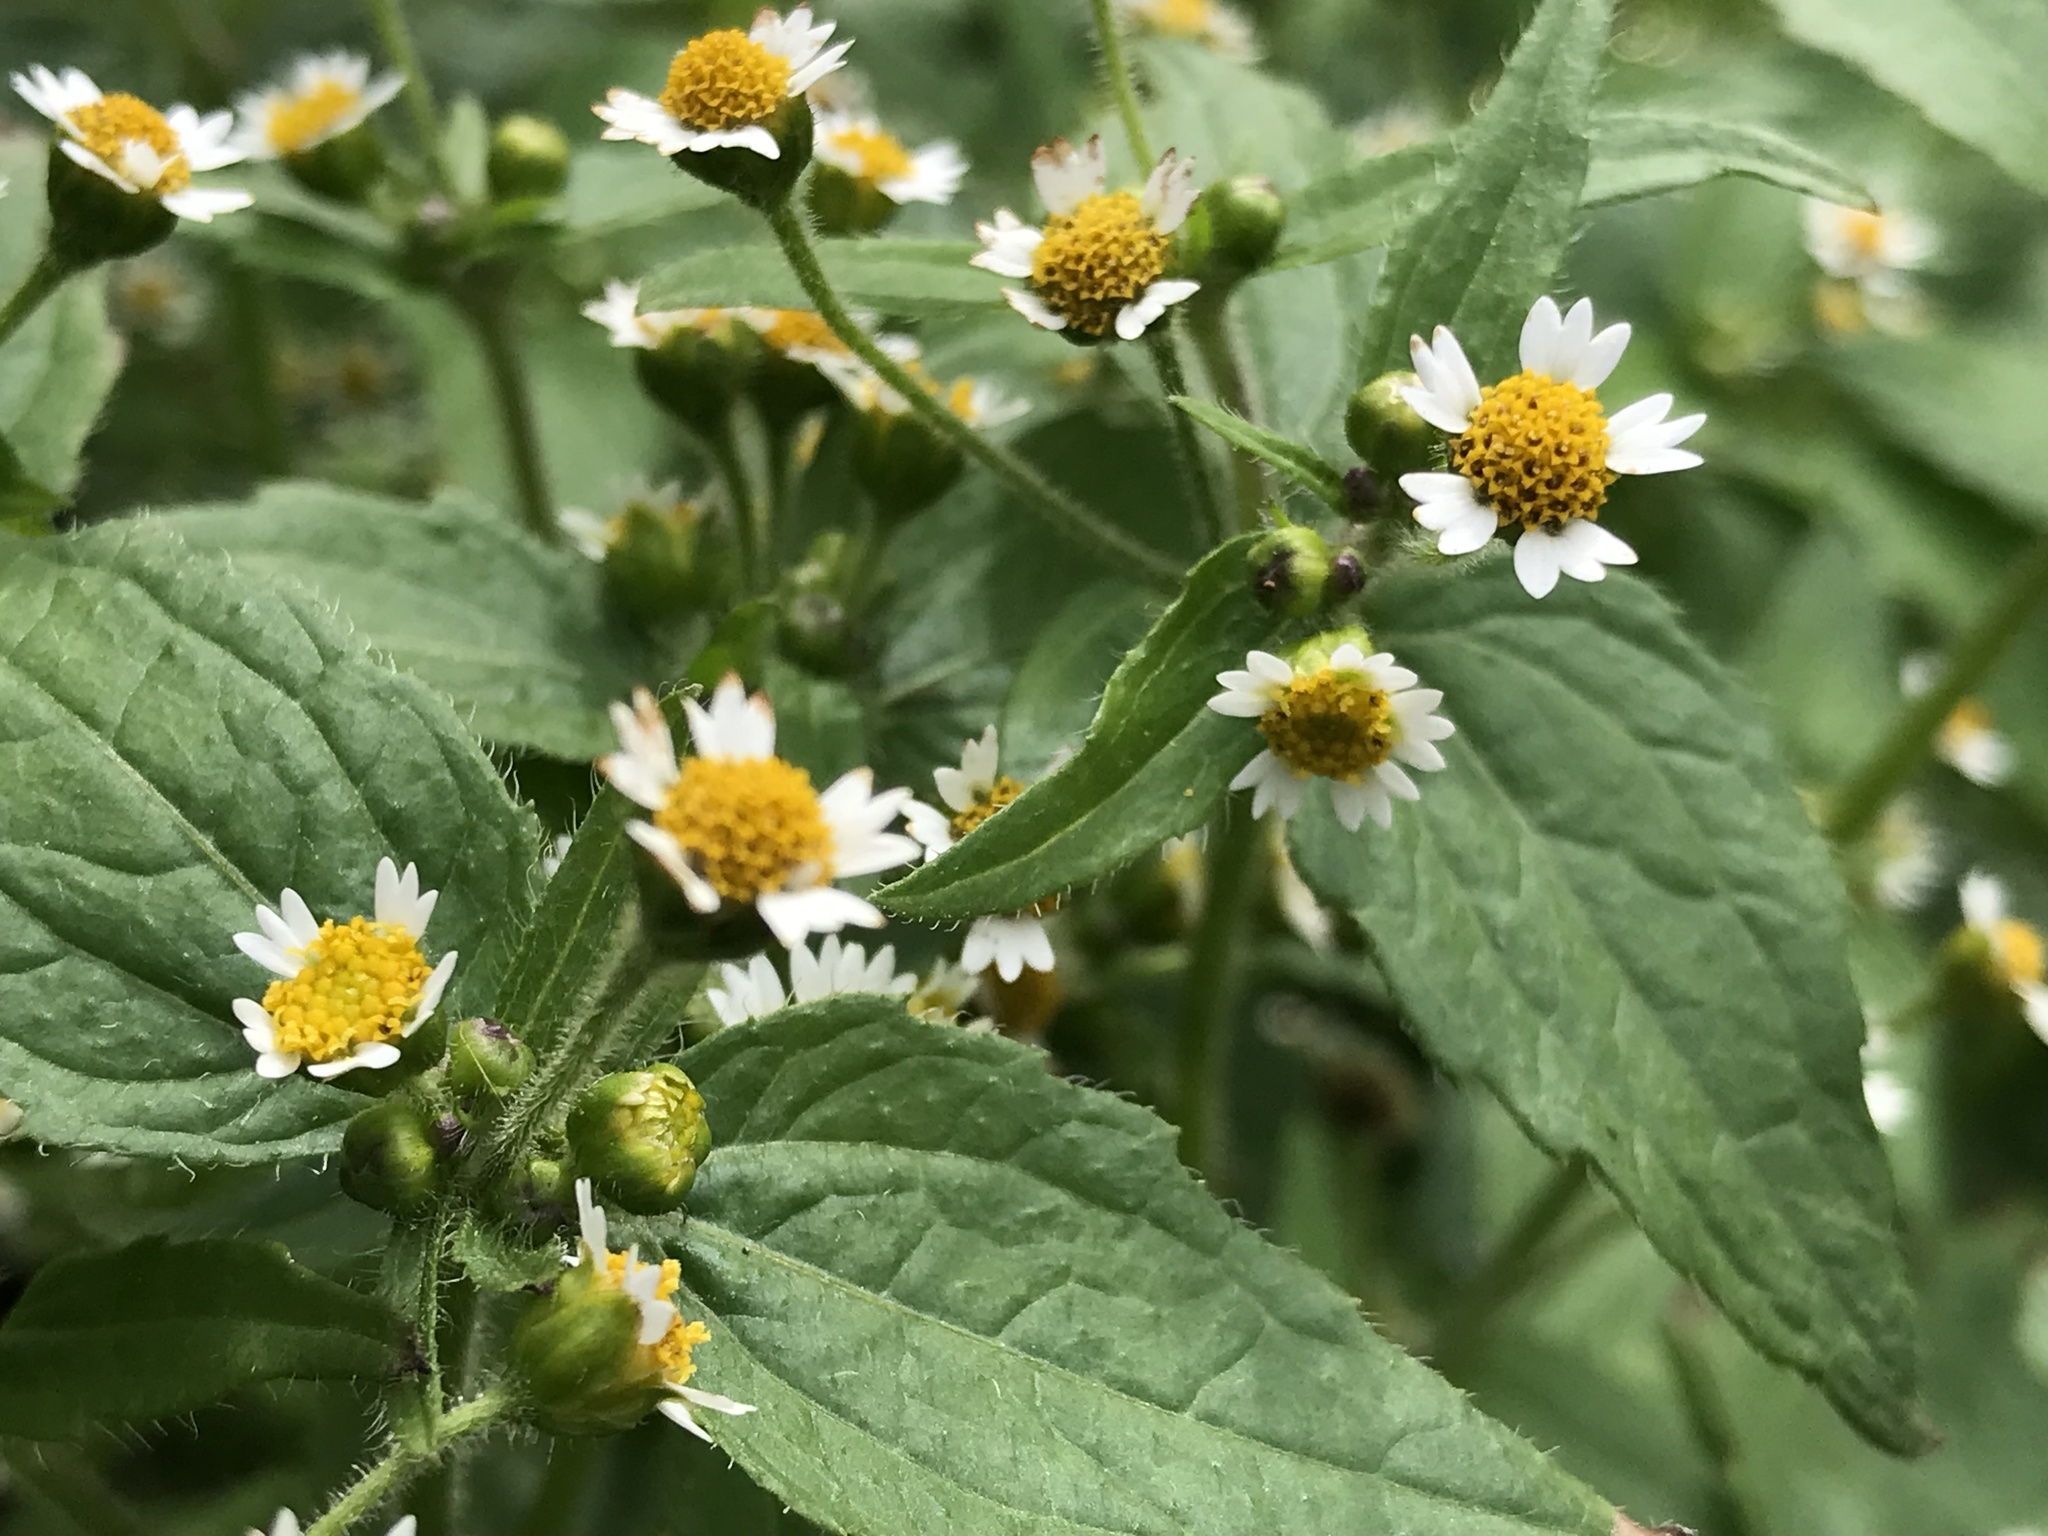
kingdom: Plantae
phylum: Tracheophyta
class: Magnoliopsida
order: Asterales
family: Asteraceae
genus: Galinsoga
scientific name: Galinsoga parviflora
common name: Gallant soldier
